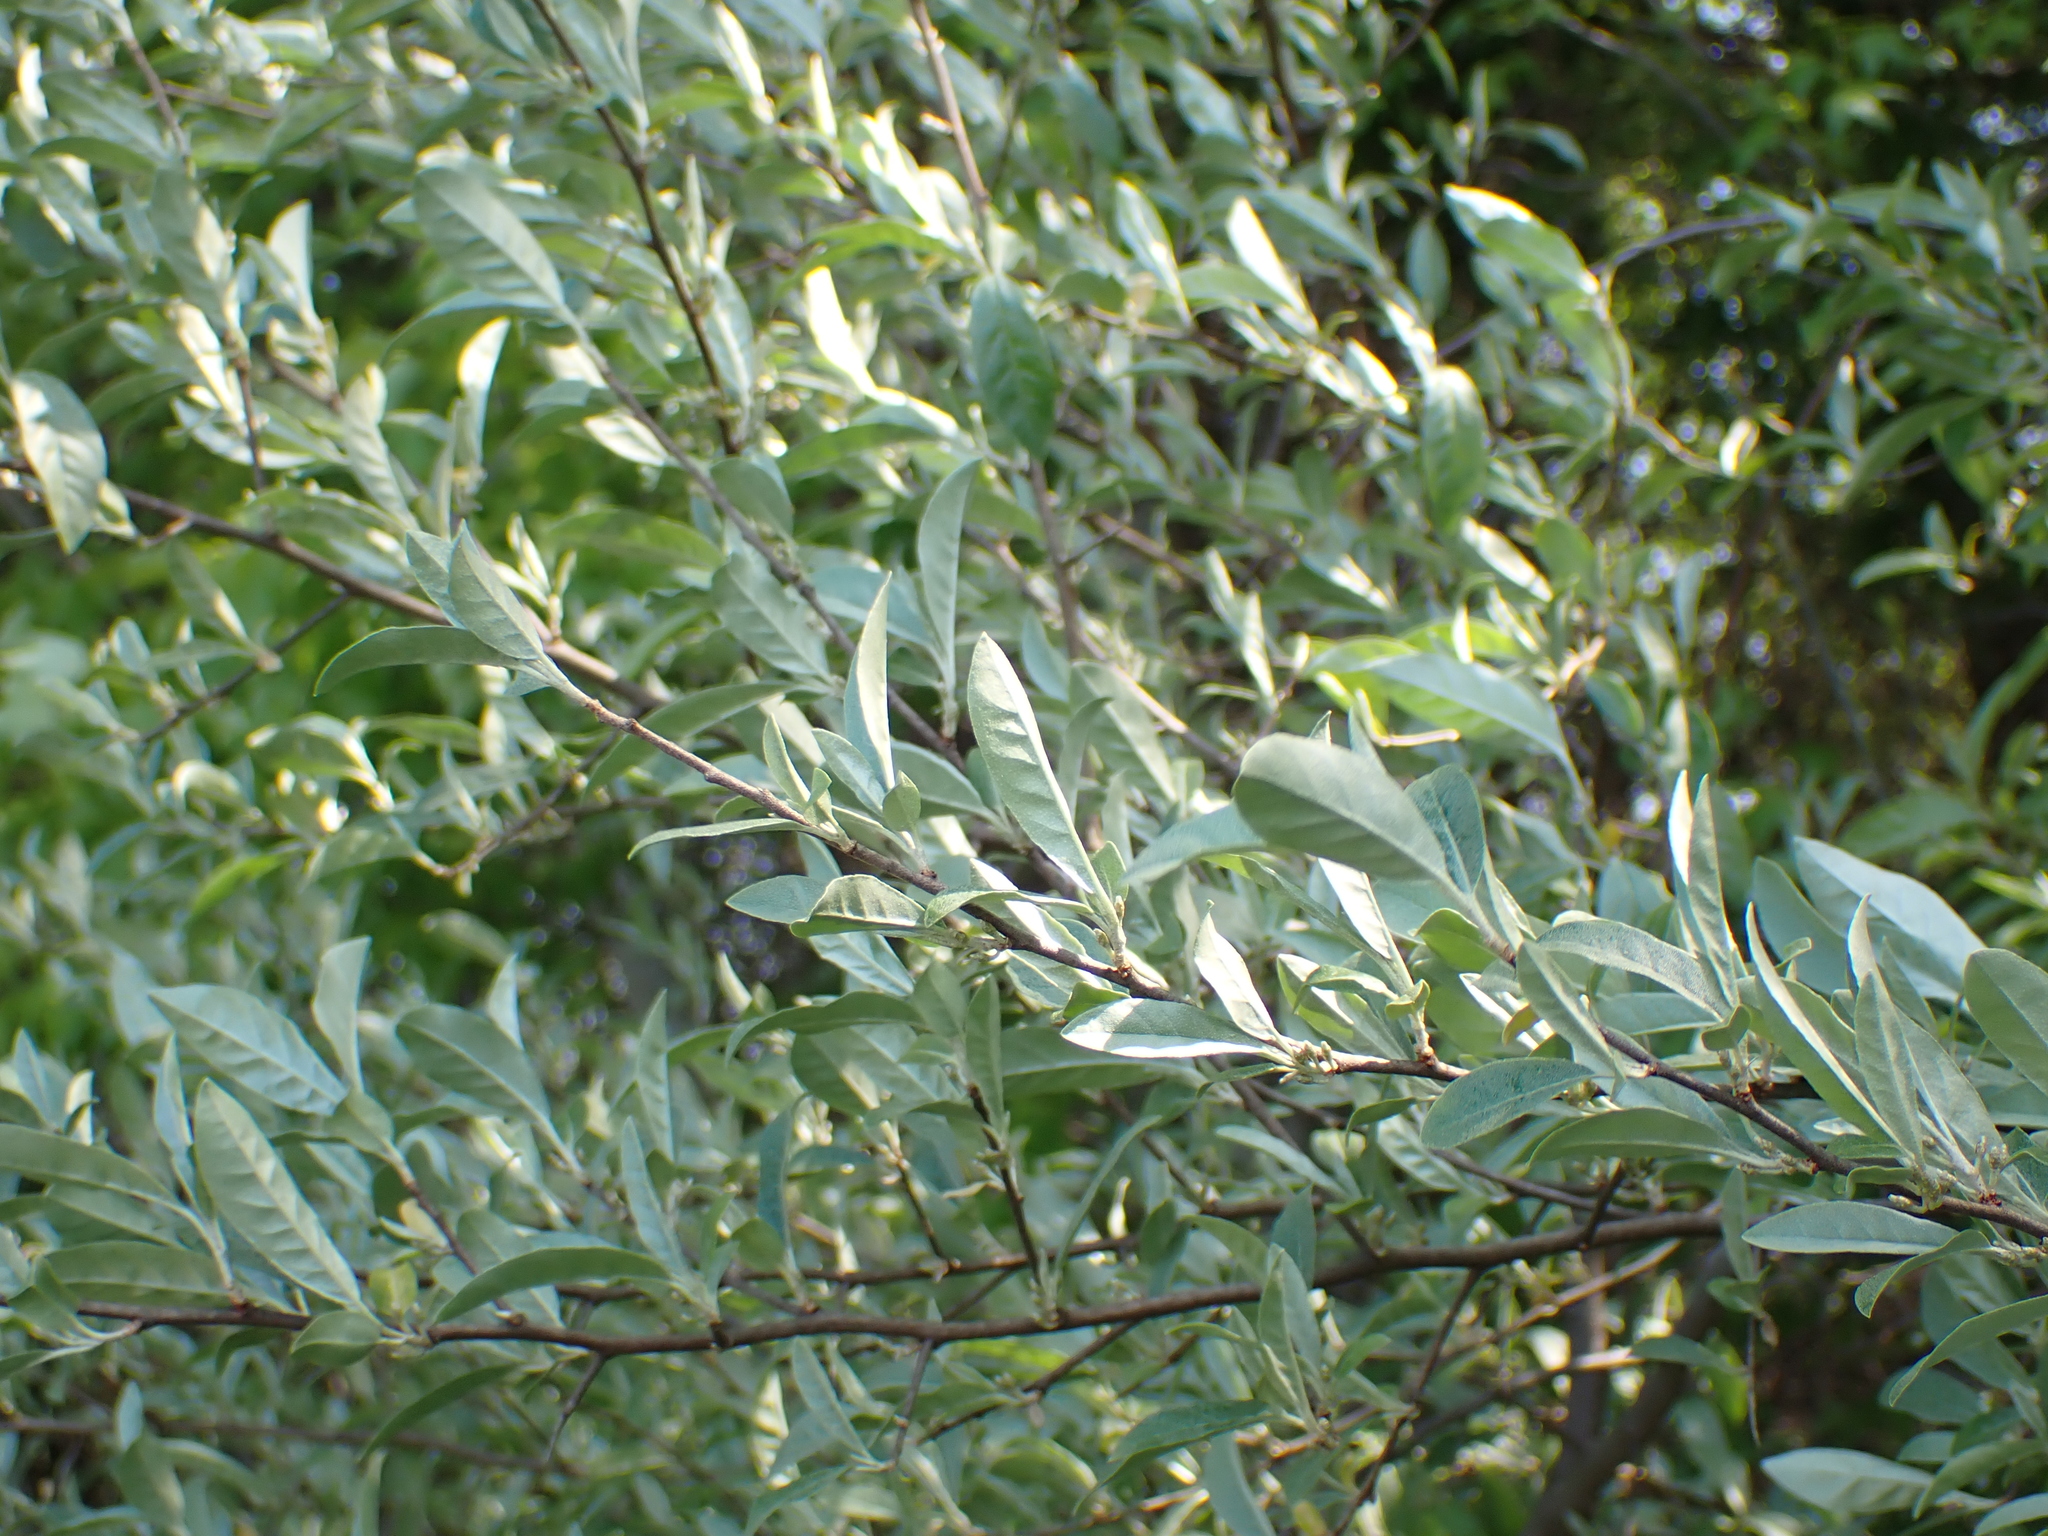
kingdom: Plantae
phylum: Tracheophyta
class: Magnoliopsida
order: Rosales
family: Elaeagnaceae
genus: Elaeagnus
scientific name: Elaeagnus umbellata
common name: Autumn olive
